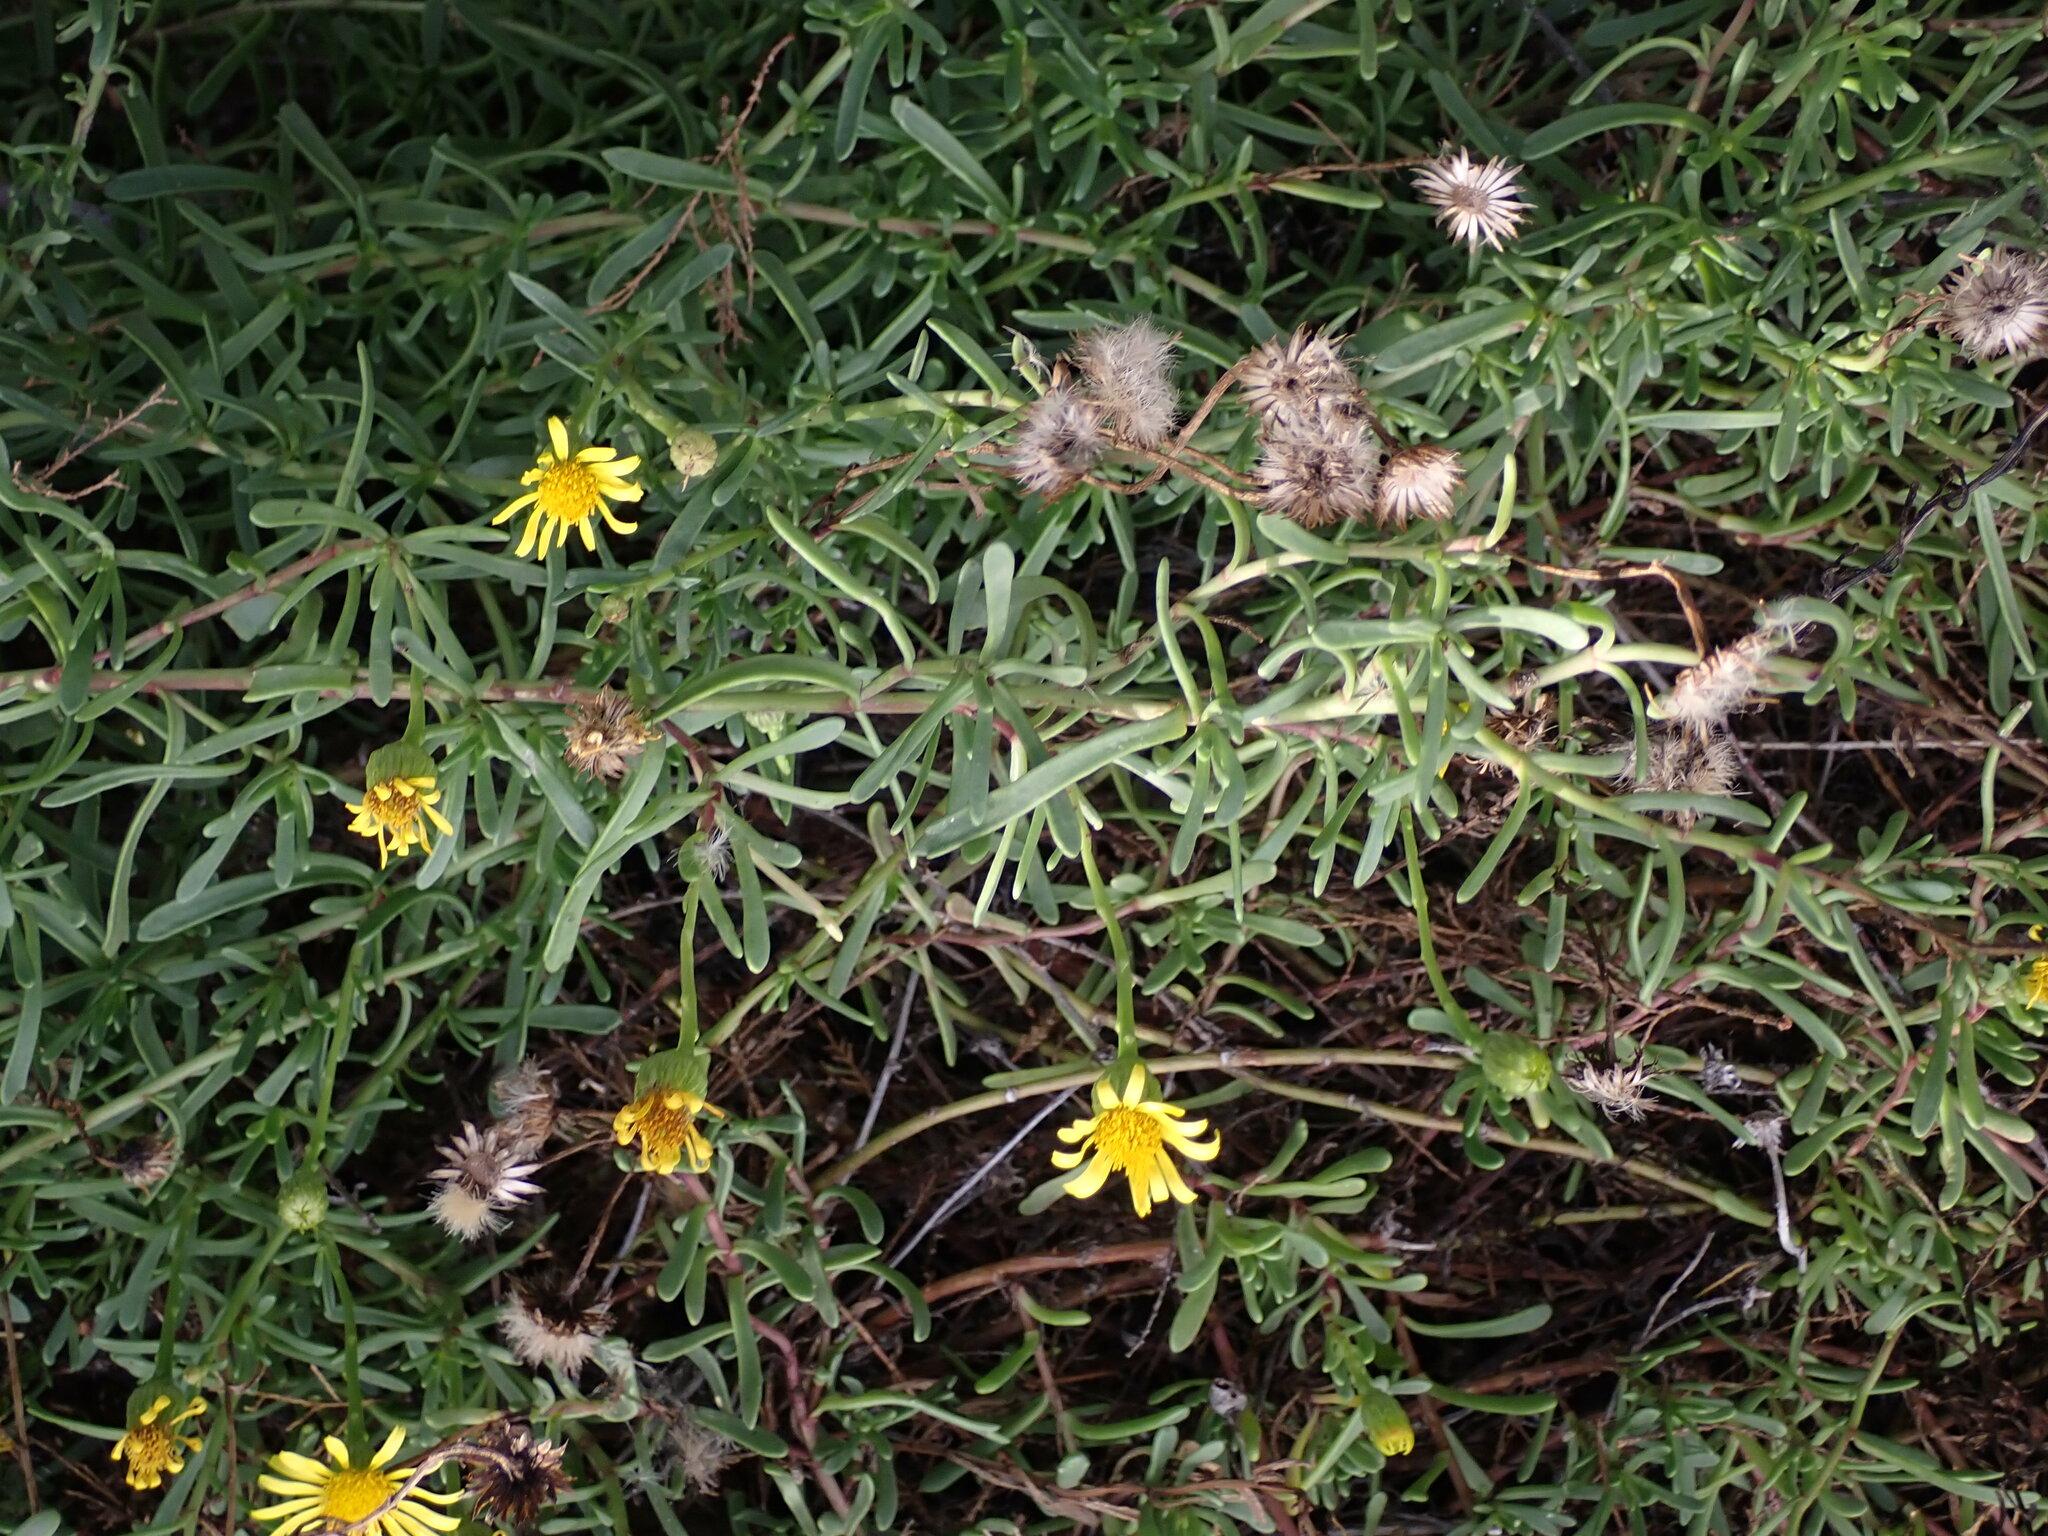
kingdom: Plantae
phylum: Tracheophyta
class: Magnoliopsida
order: Asterales
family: Asteraceae
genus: Limbarda
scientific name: Limbarda crithmoides
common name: Golden samphire
